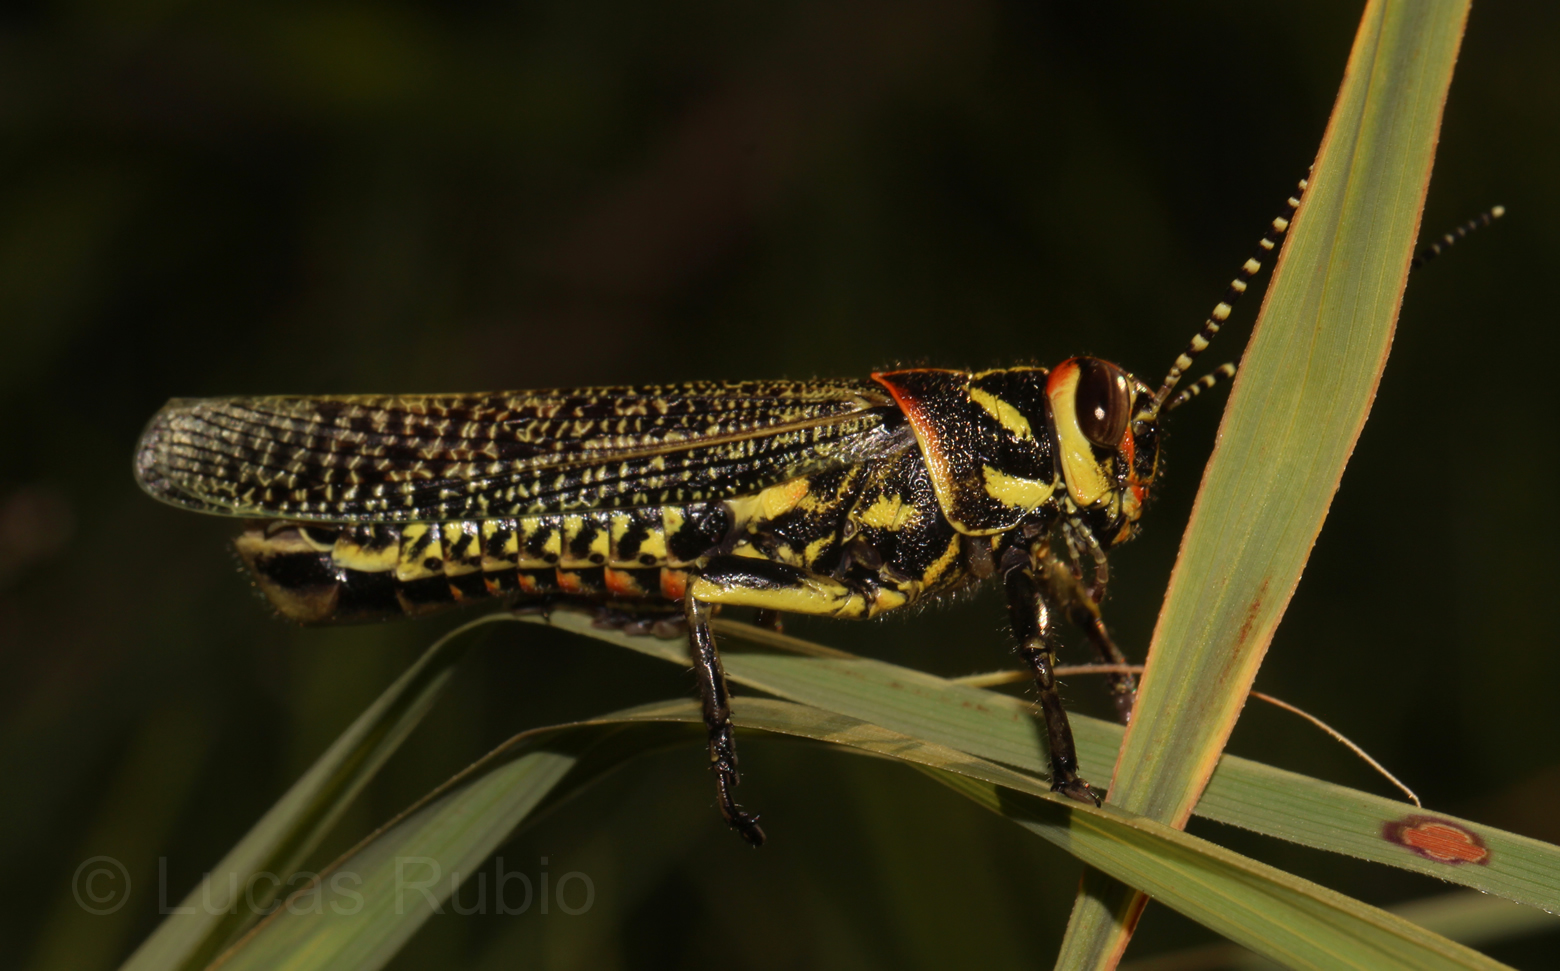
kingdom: Animalia
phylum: Arthropoda
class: Insecta
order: Orthoptera
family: Romaleidae
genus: Diponthus
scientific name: Diponthus puelchus
